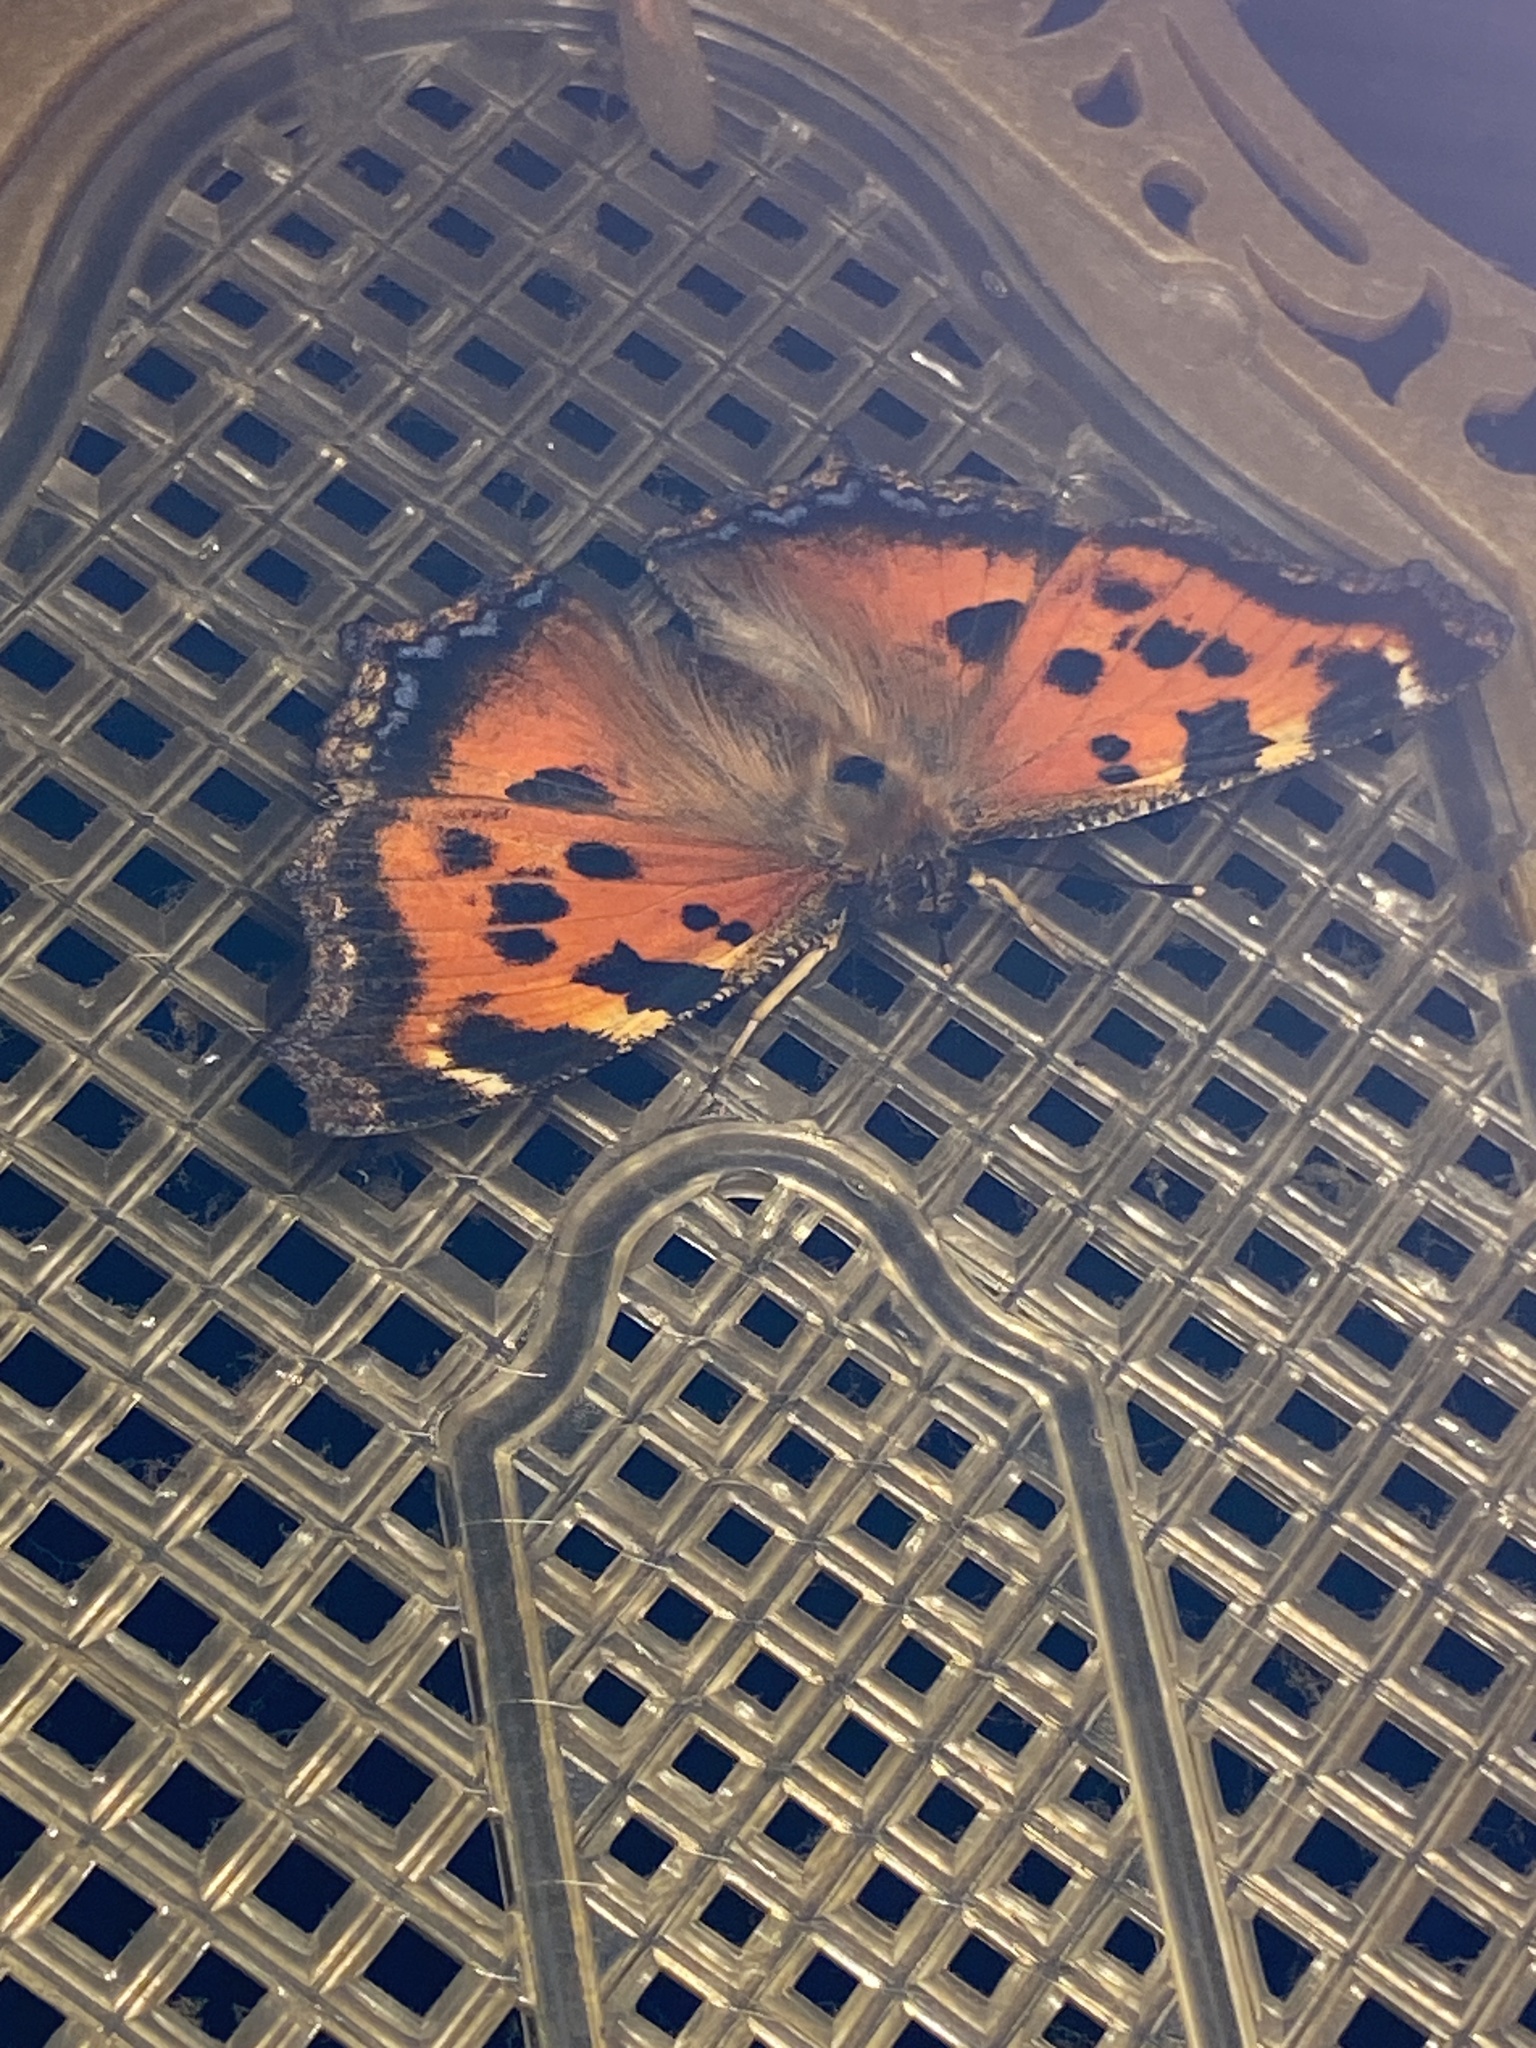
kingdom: Animalia
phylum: Arthropoda
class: Insecta
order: Lepidoptera
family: Nymphalidae
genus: Nymphalis
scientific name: Nymphalis xanthomelas
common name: Scarce tortoiseshell
